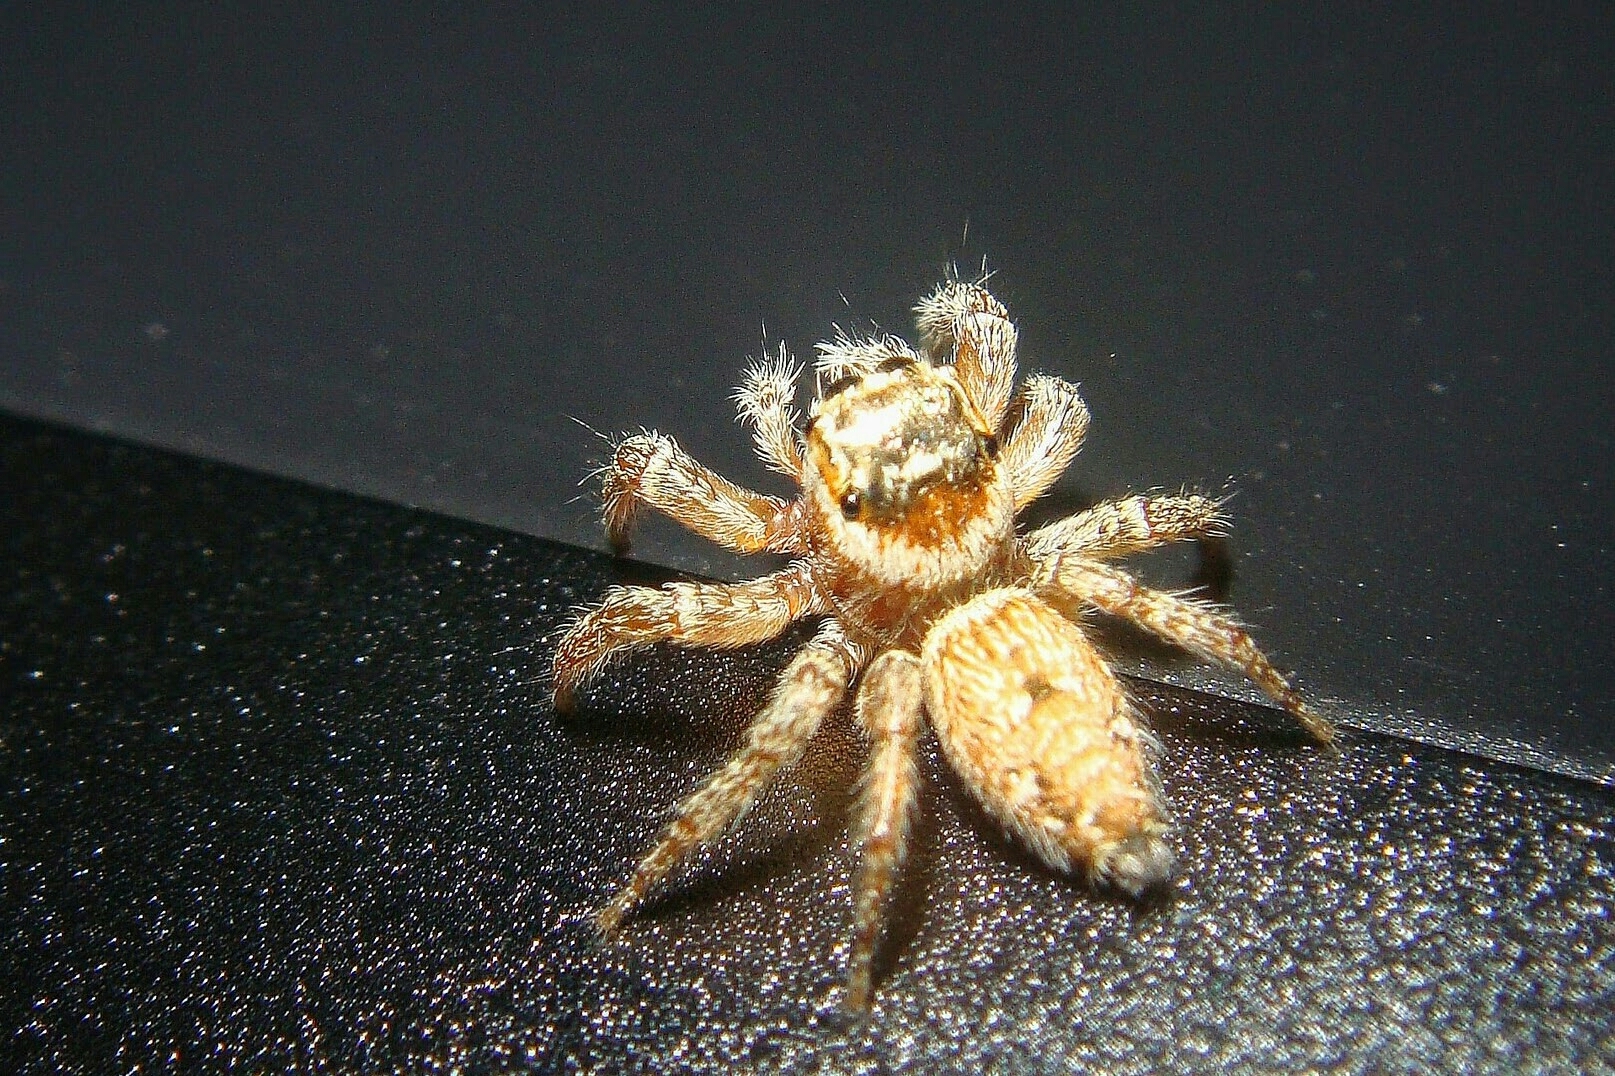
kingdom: Animalia
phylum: Arthropoda
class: Arachnida
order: Araneae
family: Salticidae
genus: Evarcha
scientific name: Evarcha jucunda
